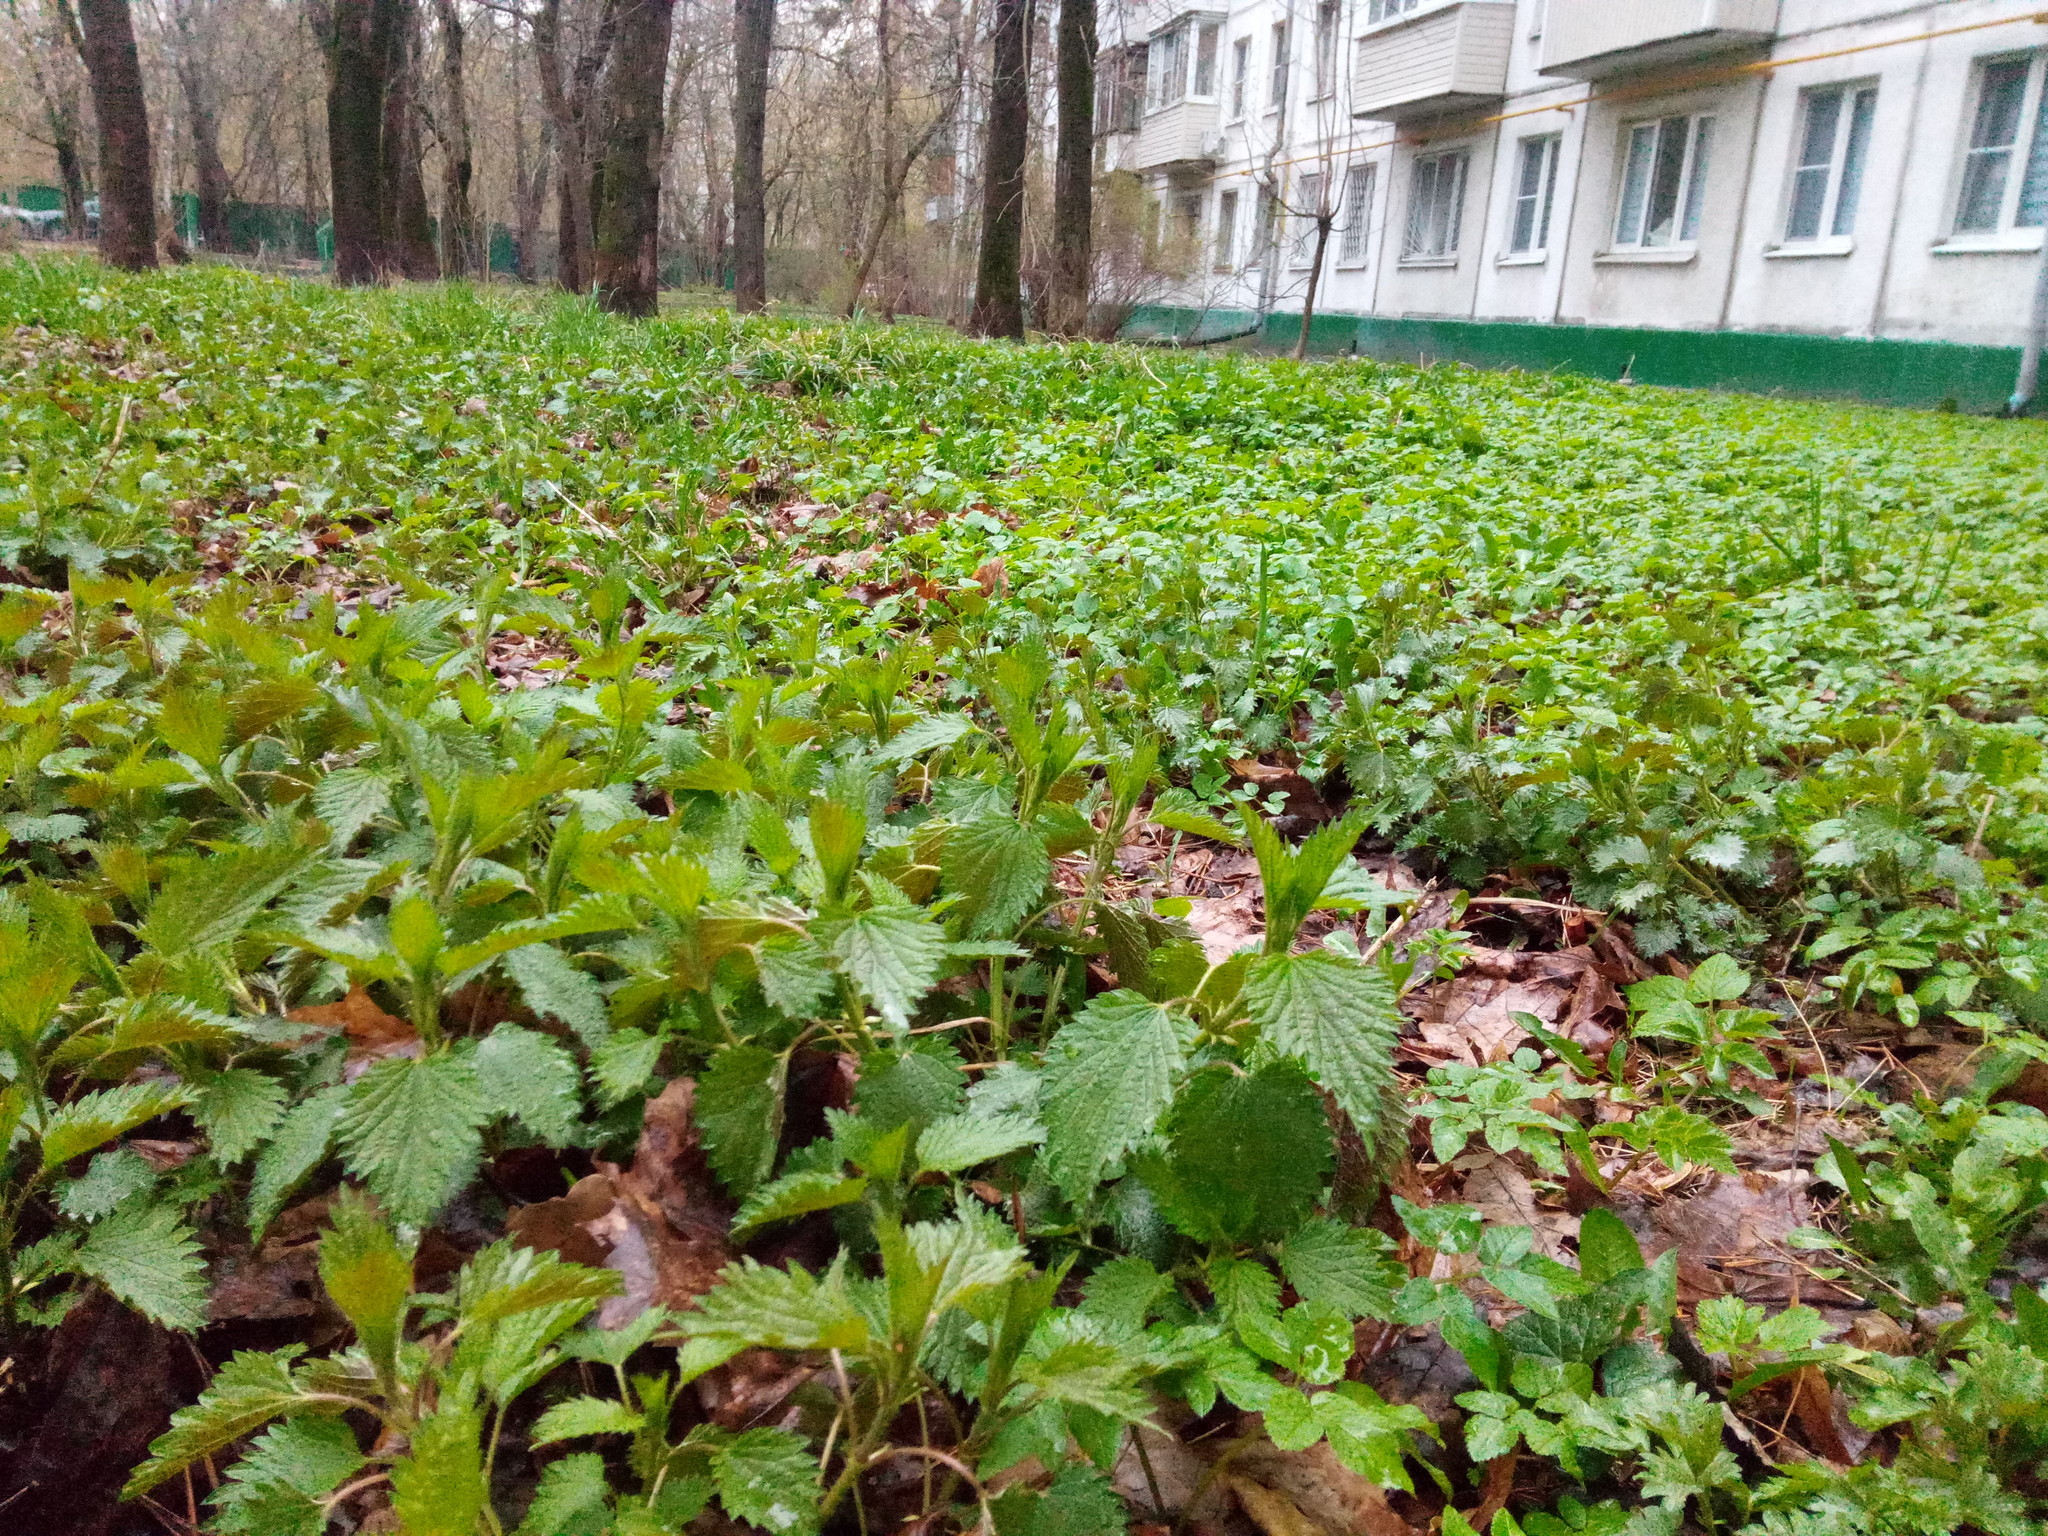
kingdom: Plantae
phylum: Tracheophyta
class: Magnoliopsida
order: Rosales
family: Urticaceae
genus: Urtica
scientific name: Urtica dioica
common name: Common nettle
